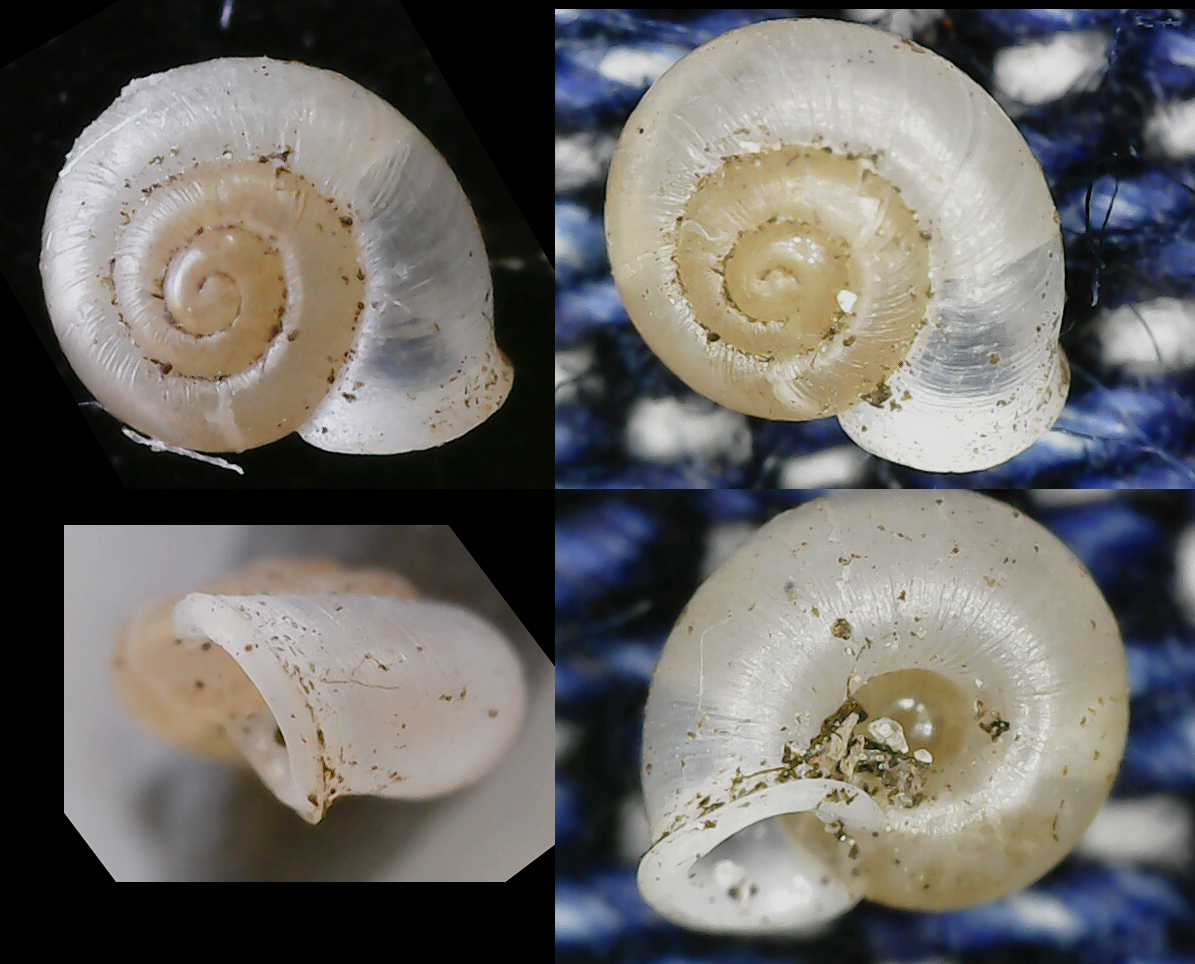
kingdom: Animalia
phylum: Mollusca
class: Gastropoda
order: Stylommatophora
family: Valloniidae
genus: Vallonia
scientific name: Vallonia pulchella
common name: Smooth grass snail
